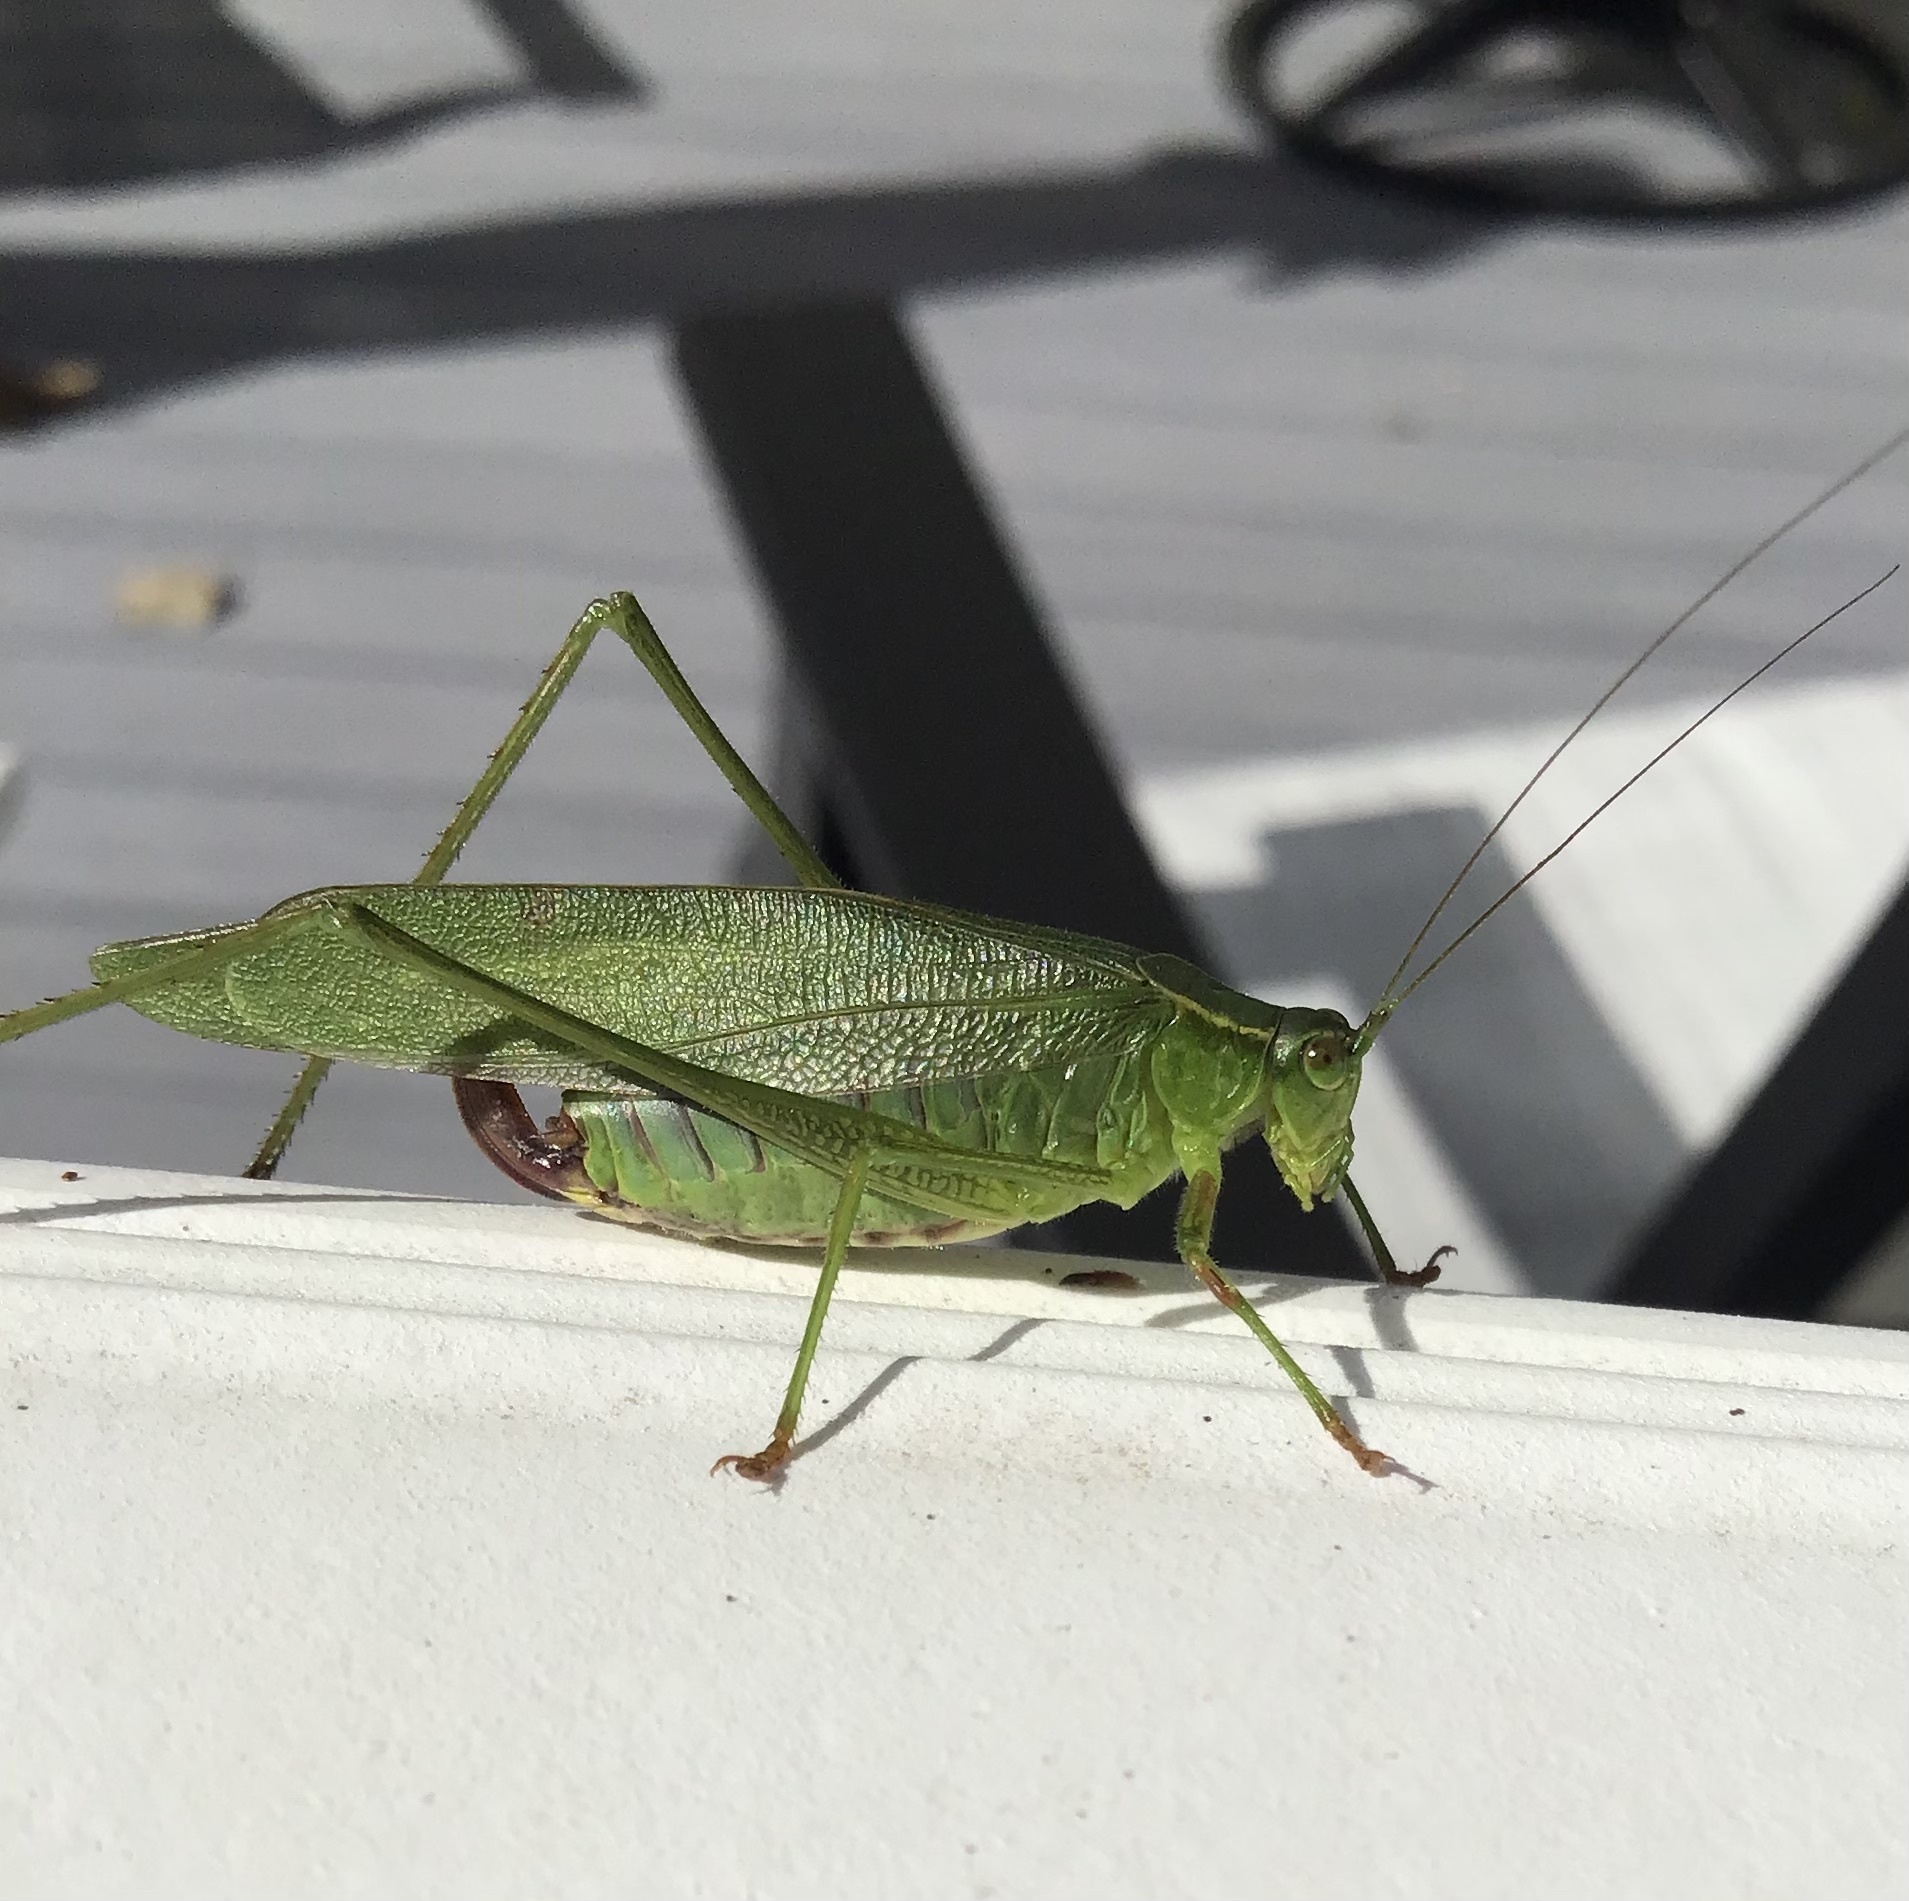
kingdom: Animalia
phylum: Arthropoda
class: Insecta
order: Orthoptera
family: Tettigoniidae
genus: Scudderia
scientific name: Scudderia furcata
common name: Fork-tailed bush katydid
